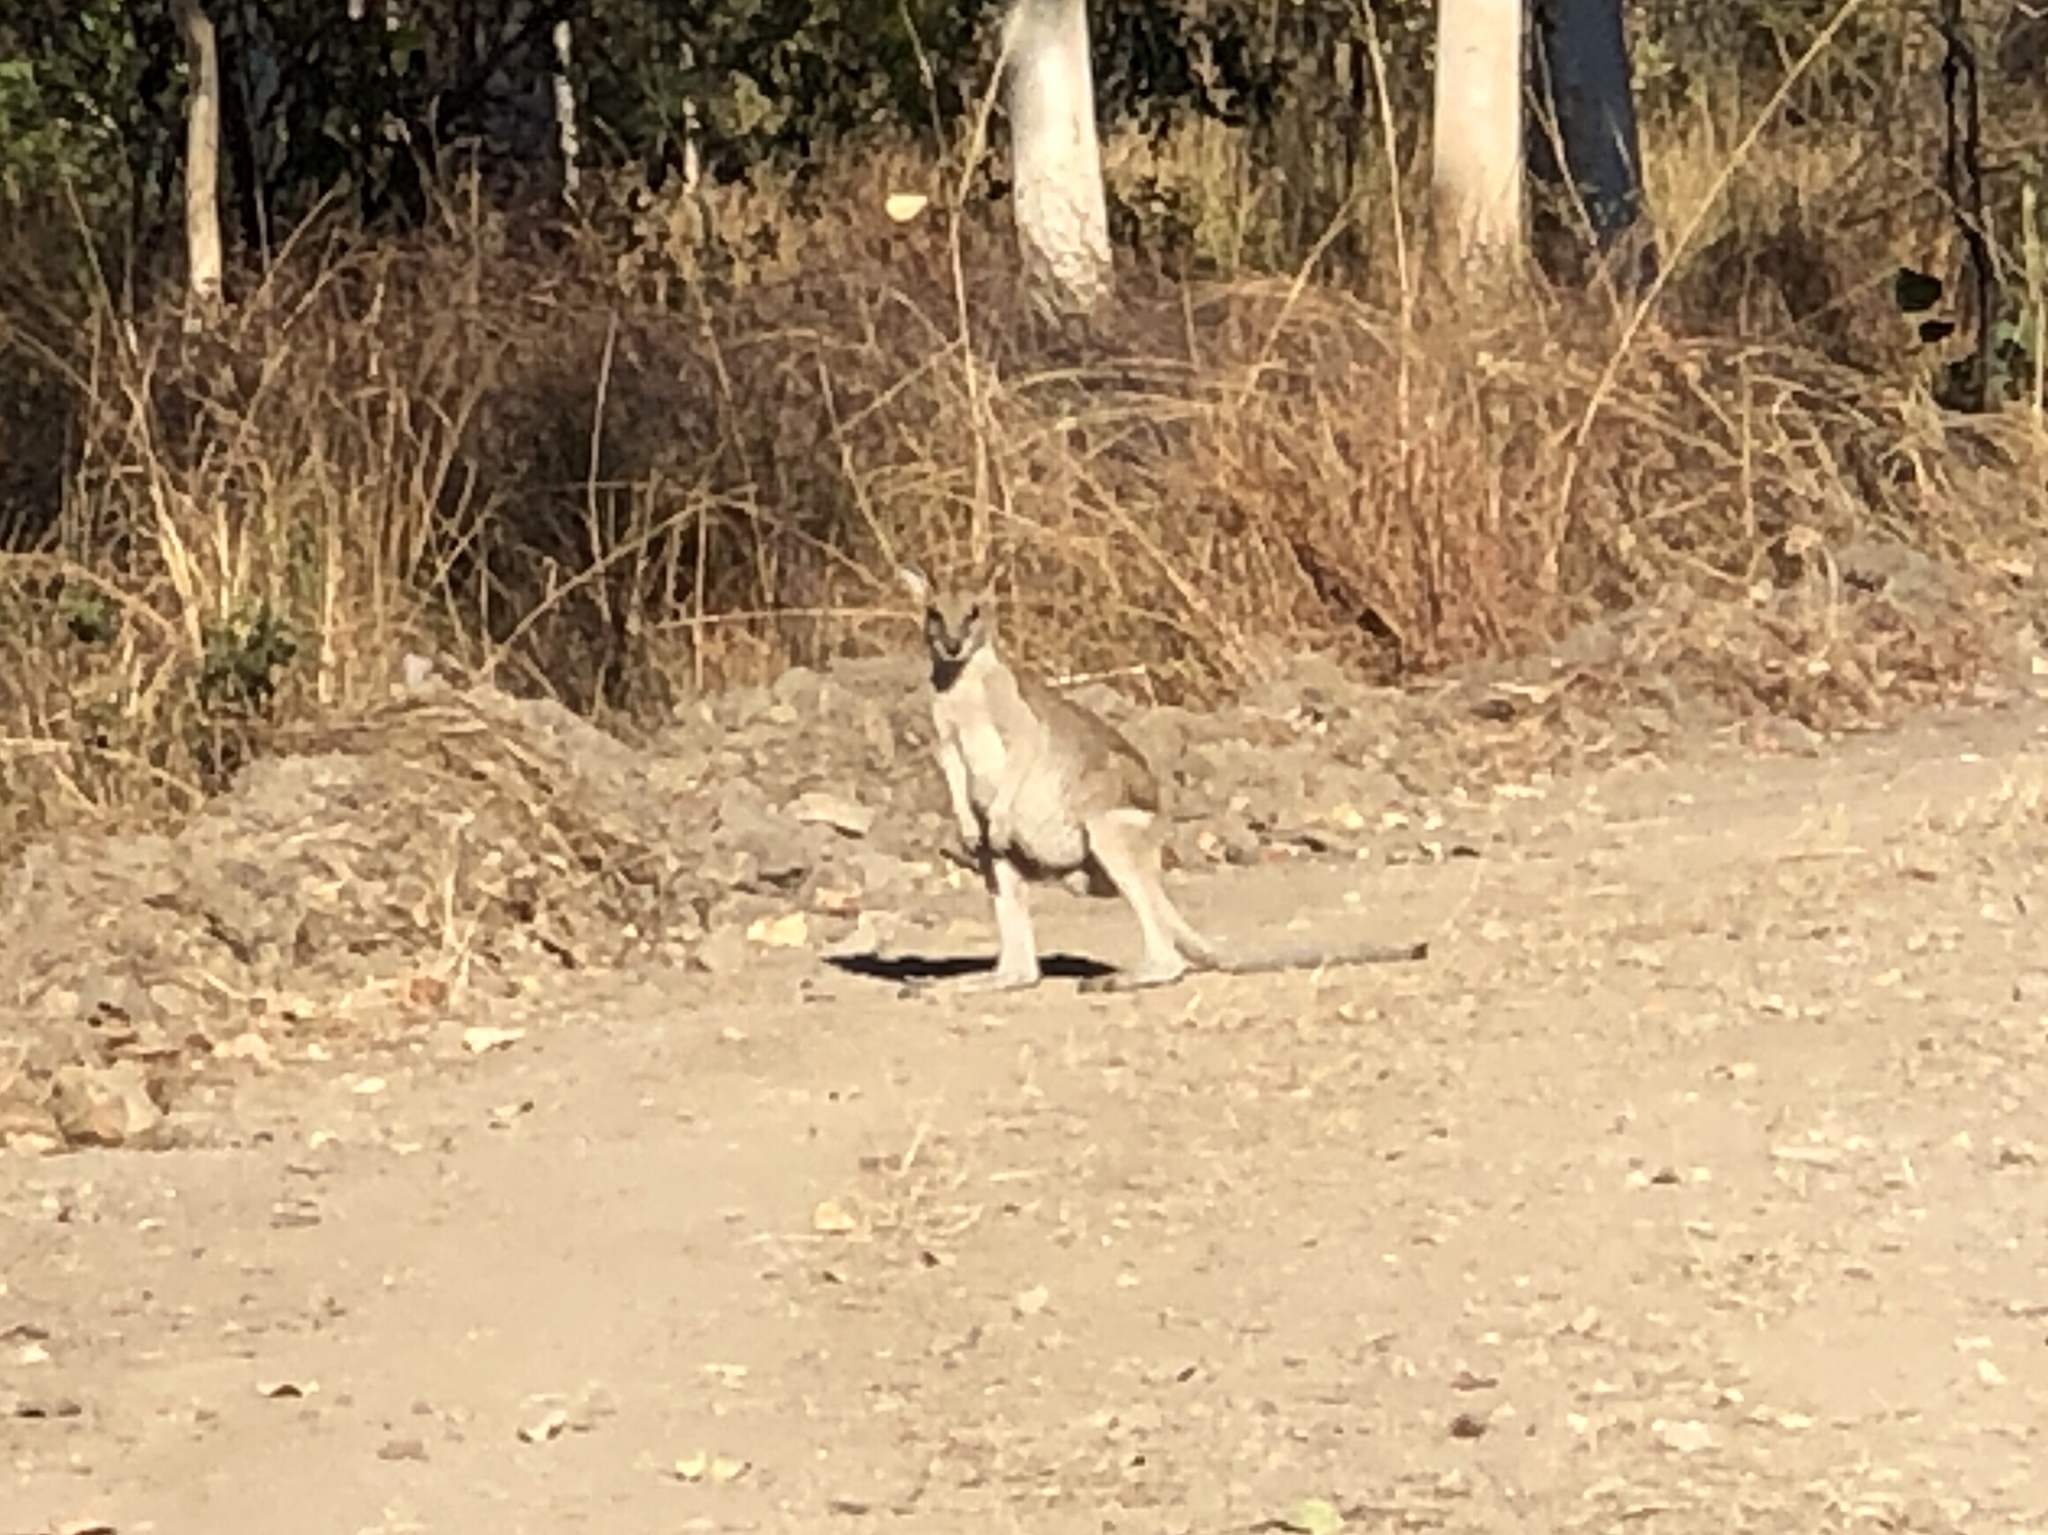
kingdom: Animalia
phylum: Chordata
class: Mammalia
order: Diprotodontia
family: Macropodidae
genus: Macropus
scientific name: Macropus agilis
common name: Agile wallaby
